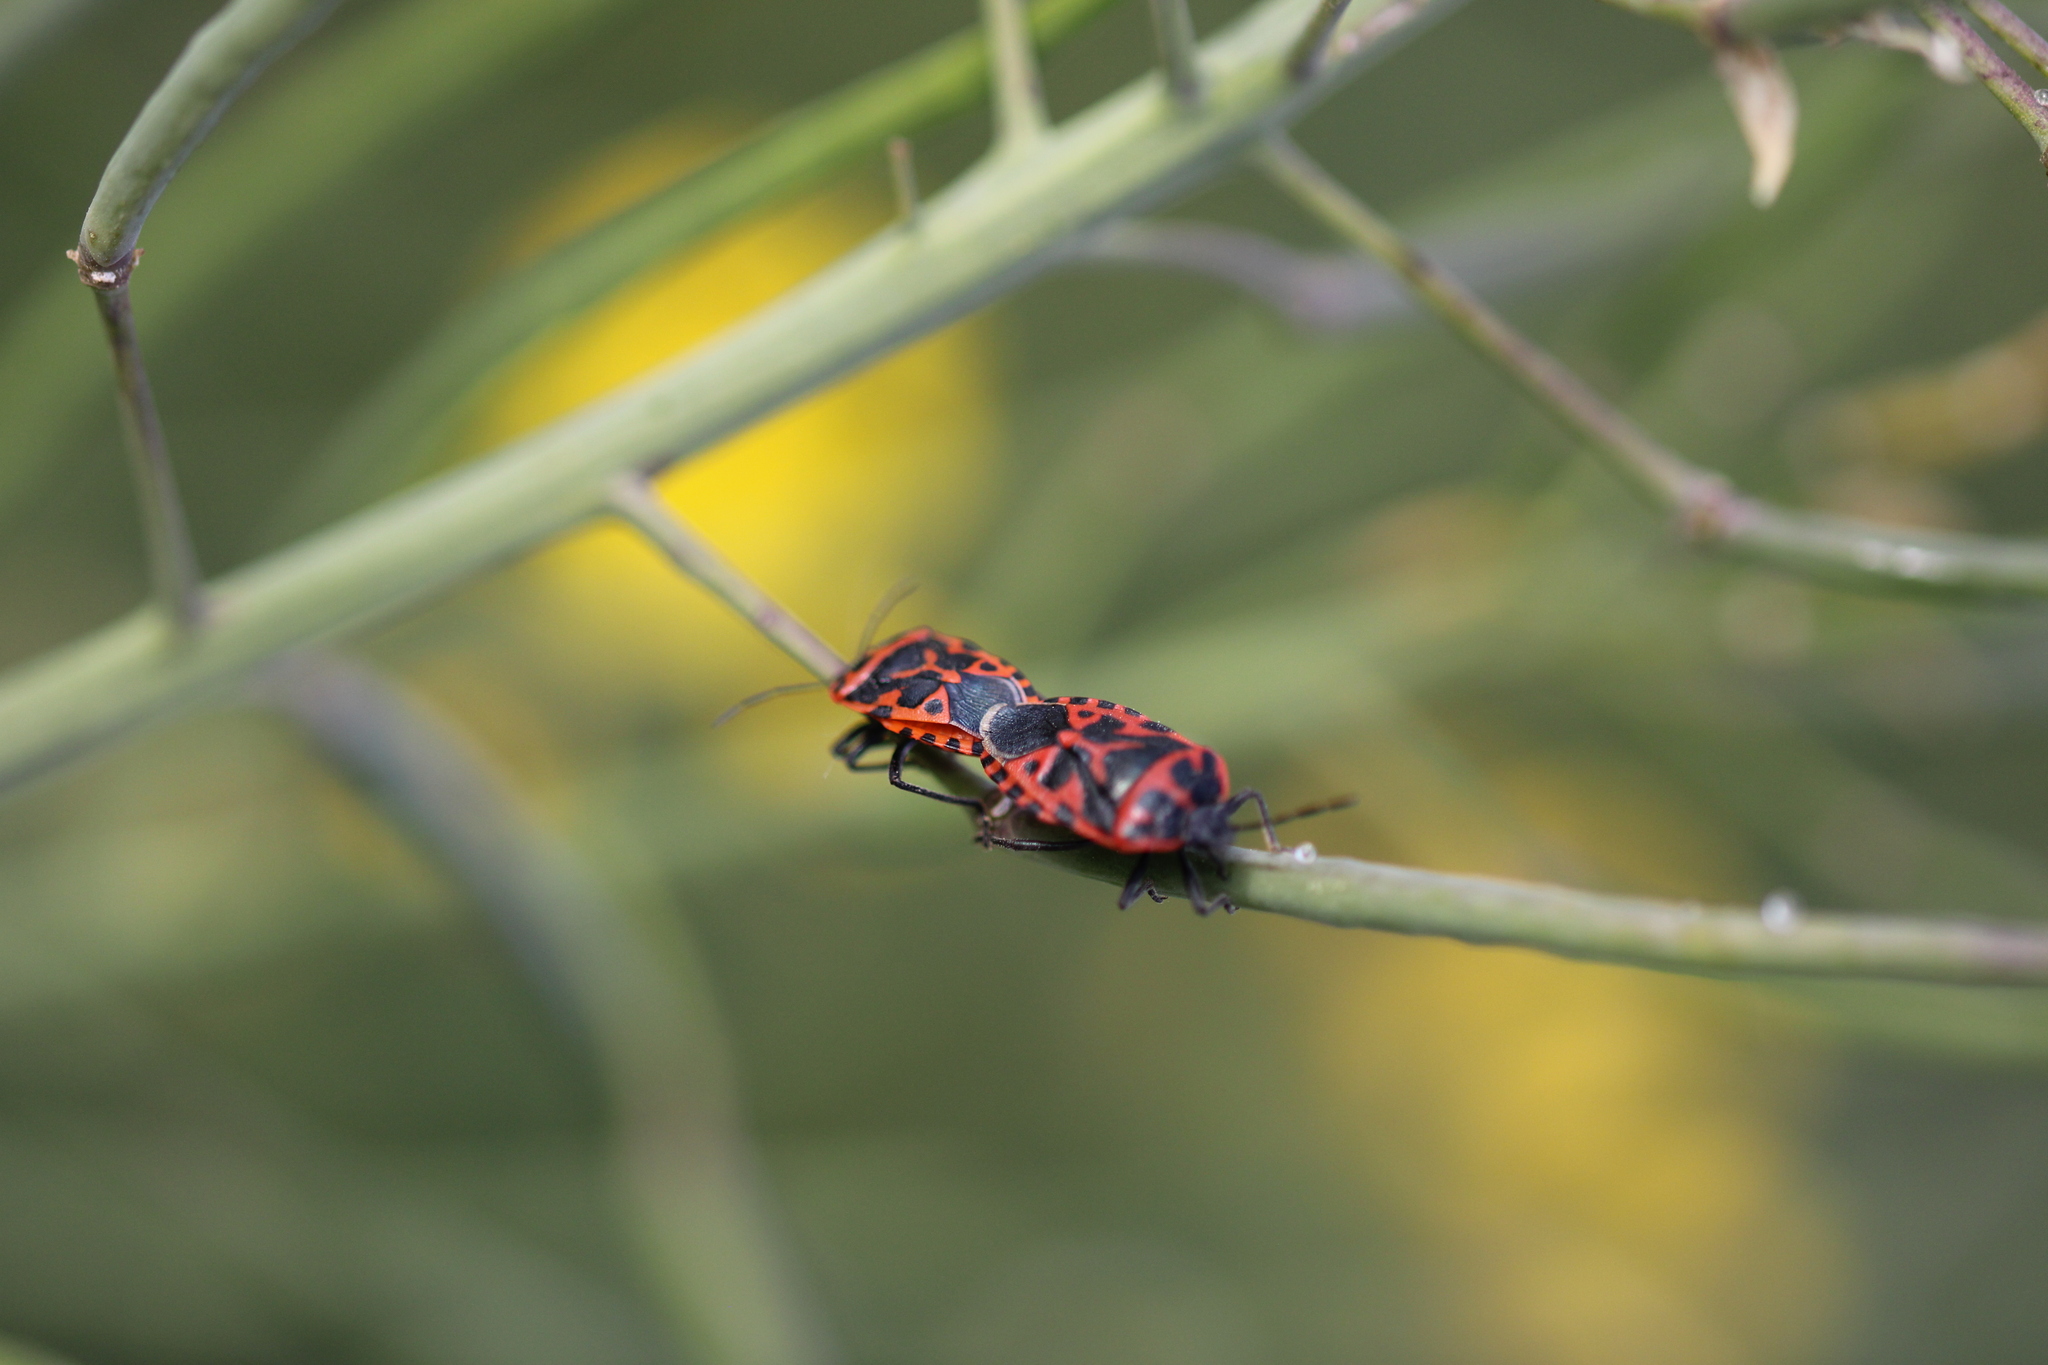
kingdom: Animalia
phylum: Arthropoda
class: Insecta
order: Hemiptera
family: Pentatomidae
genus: Eurydema
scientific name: Eurydema ventralis
